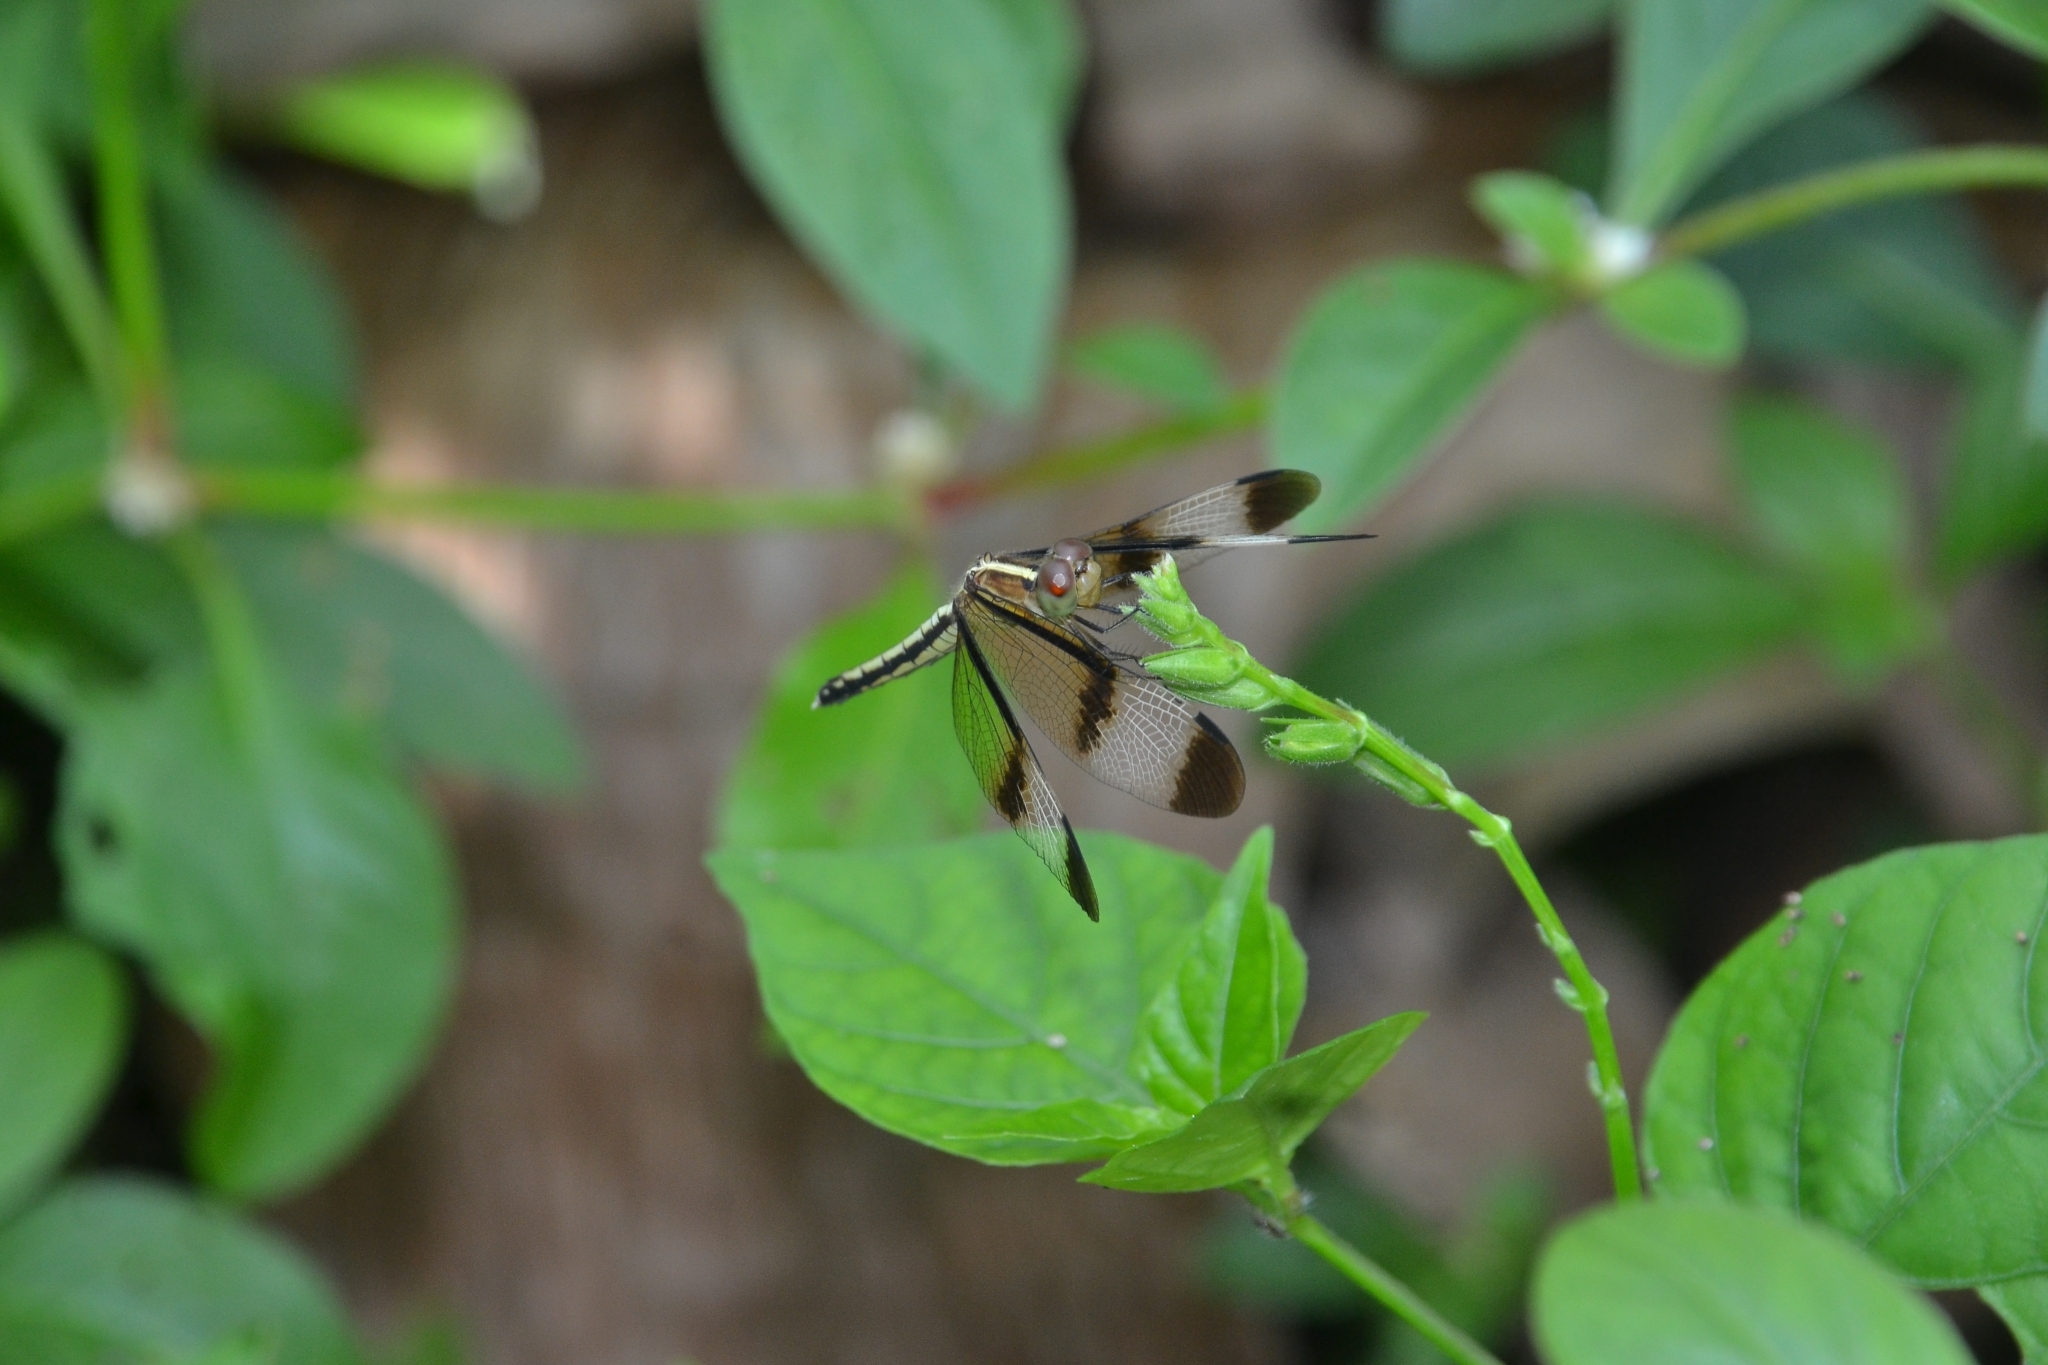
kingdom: Animalia
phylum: Arthropoda
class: Insecta
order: Odonata
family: Libellulidae
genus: Neurothemis
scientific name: Neurothemis tullia
